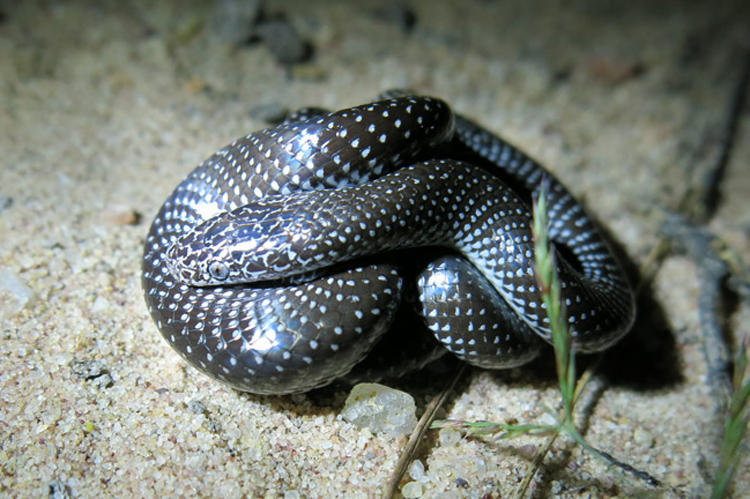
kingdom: Animalia
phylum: Chordata
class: Squamata
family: Lamprophiidae
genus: Lycophidion
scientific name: Lycophidion capense
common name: Cape wolf snake
